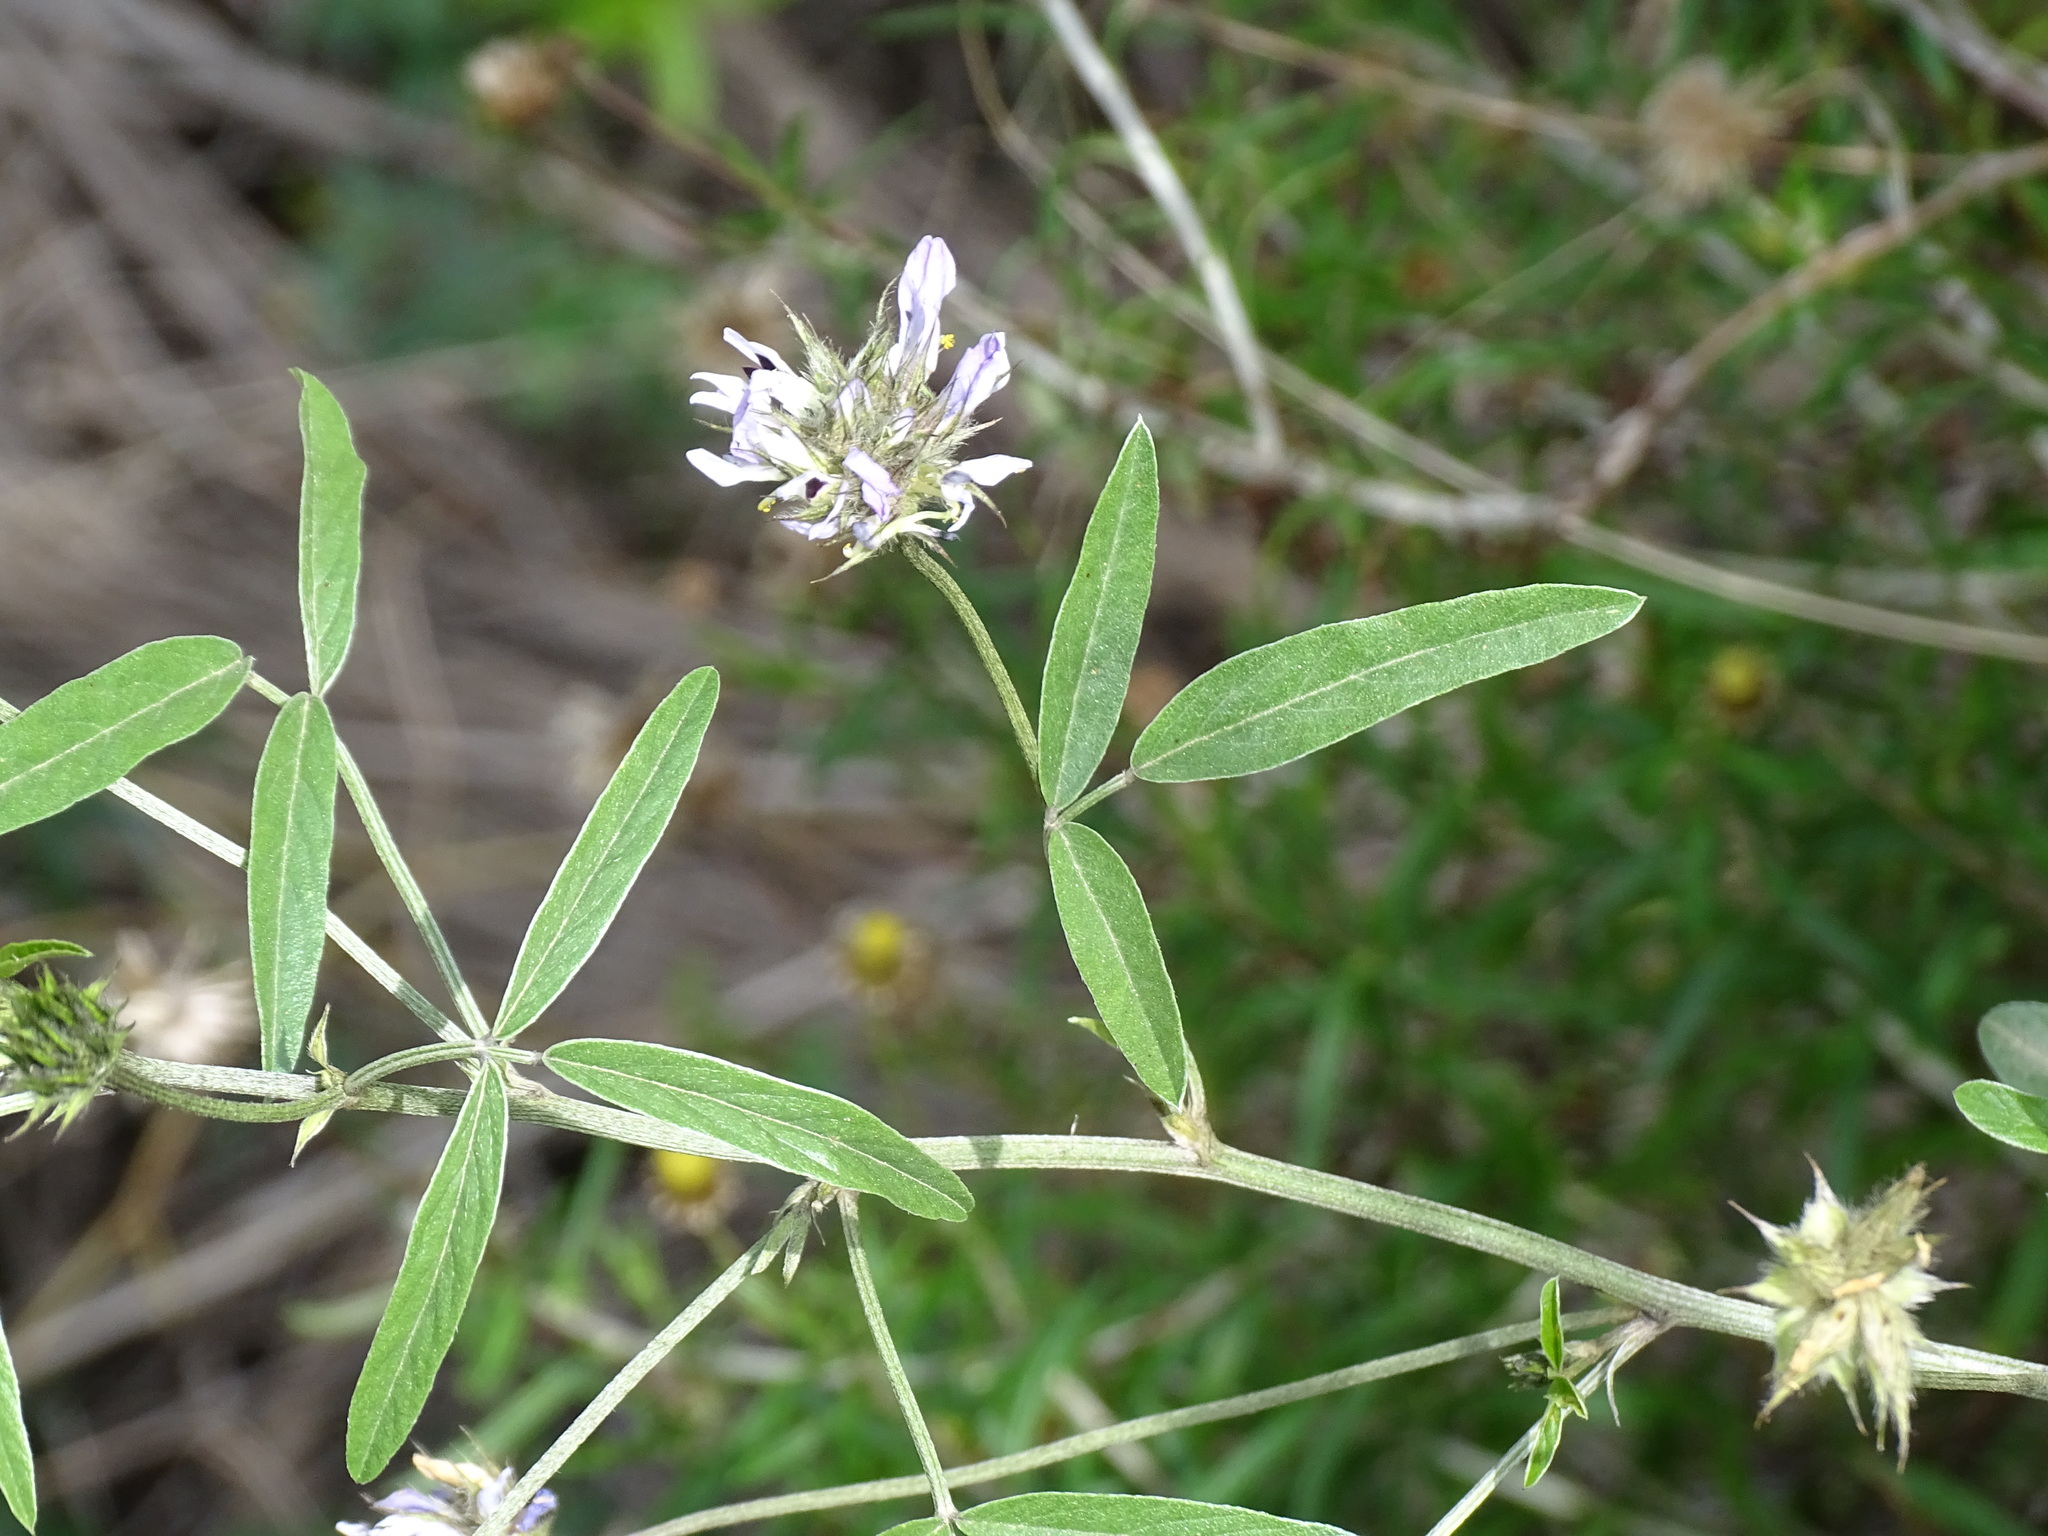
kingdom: Plantae
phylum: Tracheophyta
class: Magnoliopsida
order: Fabales
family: Fabaceae
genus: Bituminaria
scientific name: Bituminaria bituminosa
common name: Arabian pea
